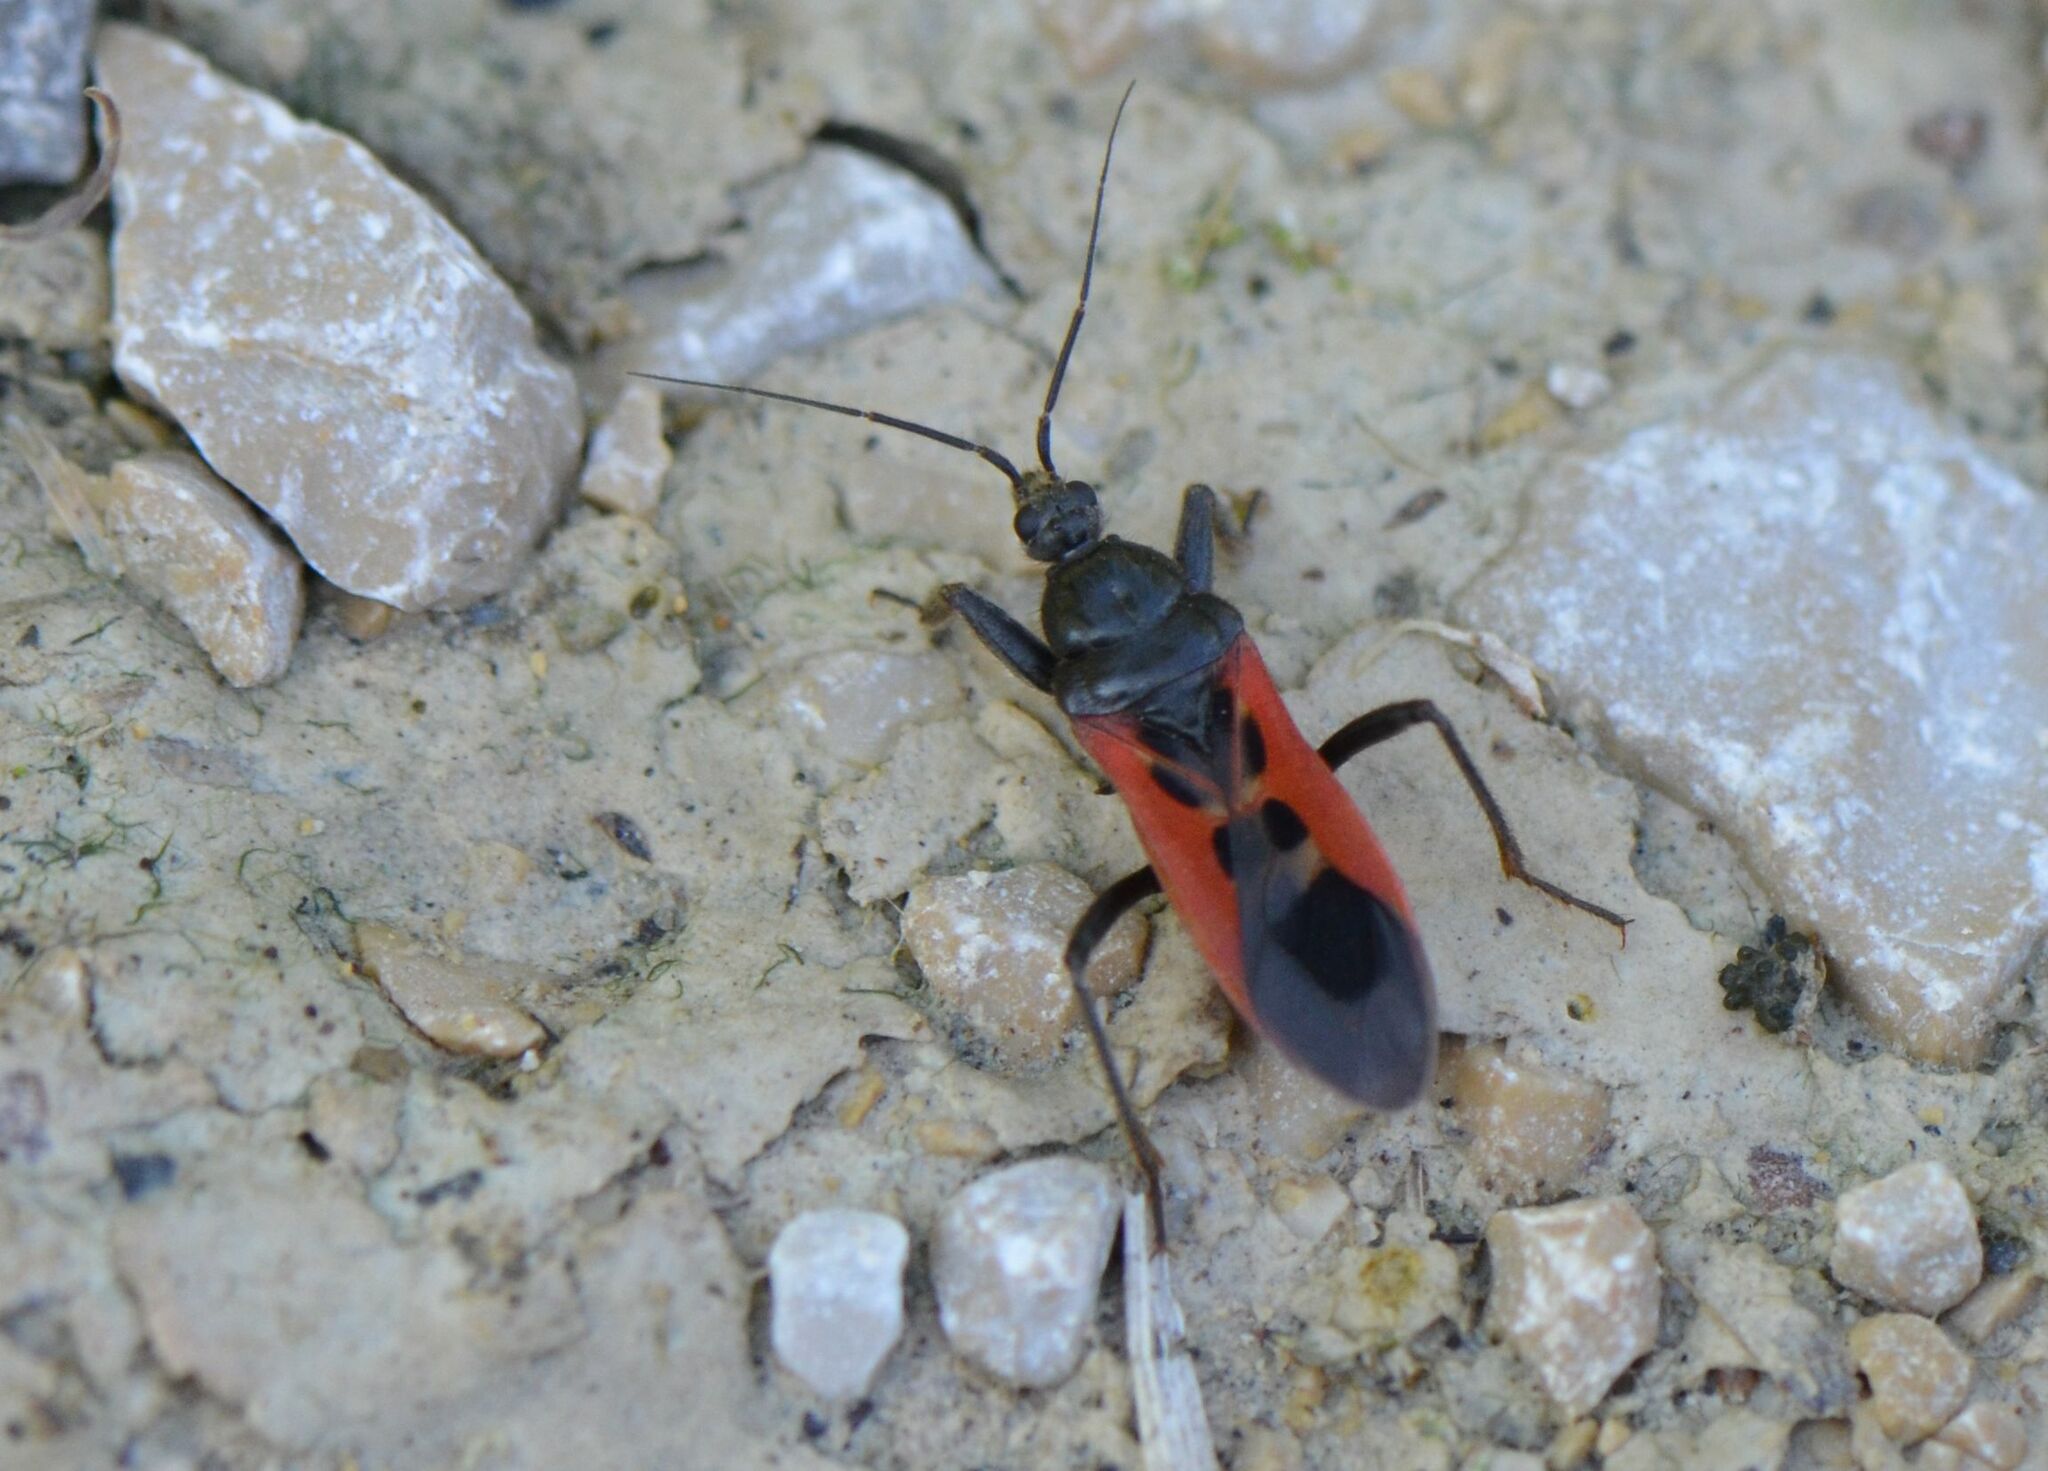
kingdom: Animalia
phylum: Arthropoda
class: Insecta
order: Hemiptera
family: Reduviidae
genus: Peirates
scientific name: Peirates hybridus
